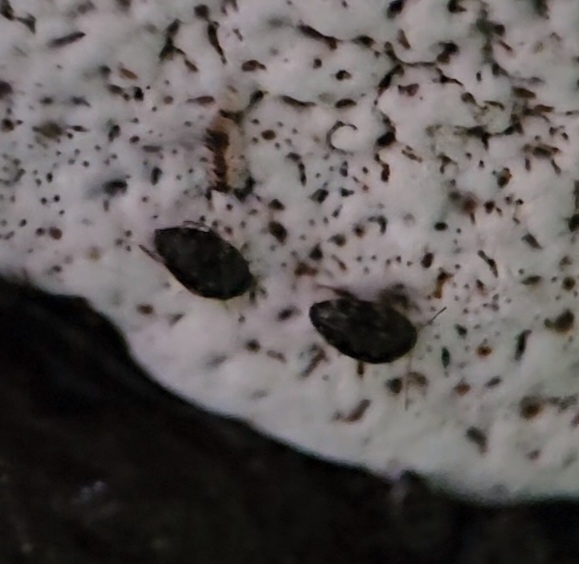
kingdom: Animalia
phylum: Arthropoda
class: Insecta
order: Coleoptera
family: Leiodidae
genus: Zearagytodes
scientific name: Zearagytodes maculifer
